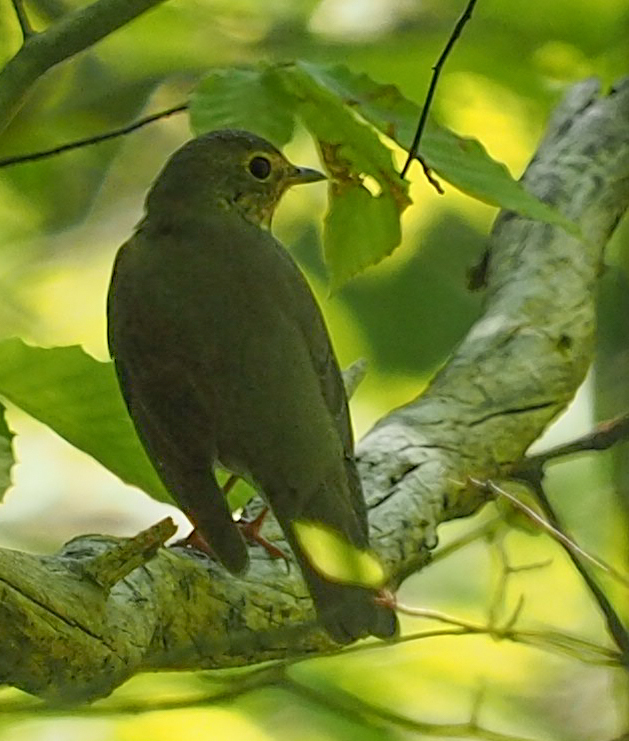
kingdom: Animalia
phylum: Chordata
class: Aves
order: Passeriformes
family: Turdidae
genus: Catharus
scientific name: Catharus ustulatus
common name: Swainson's thrush
